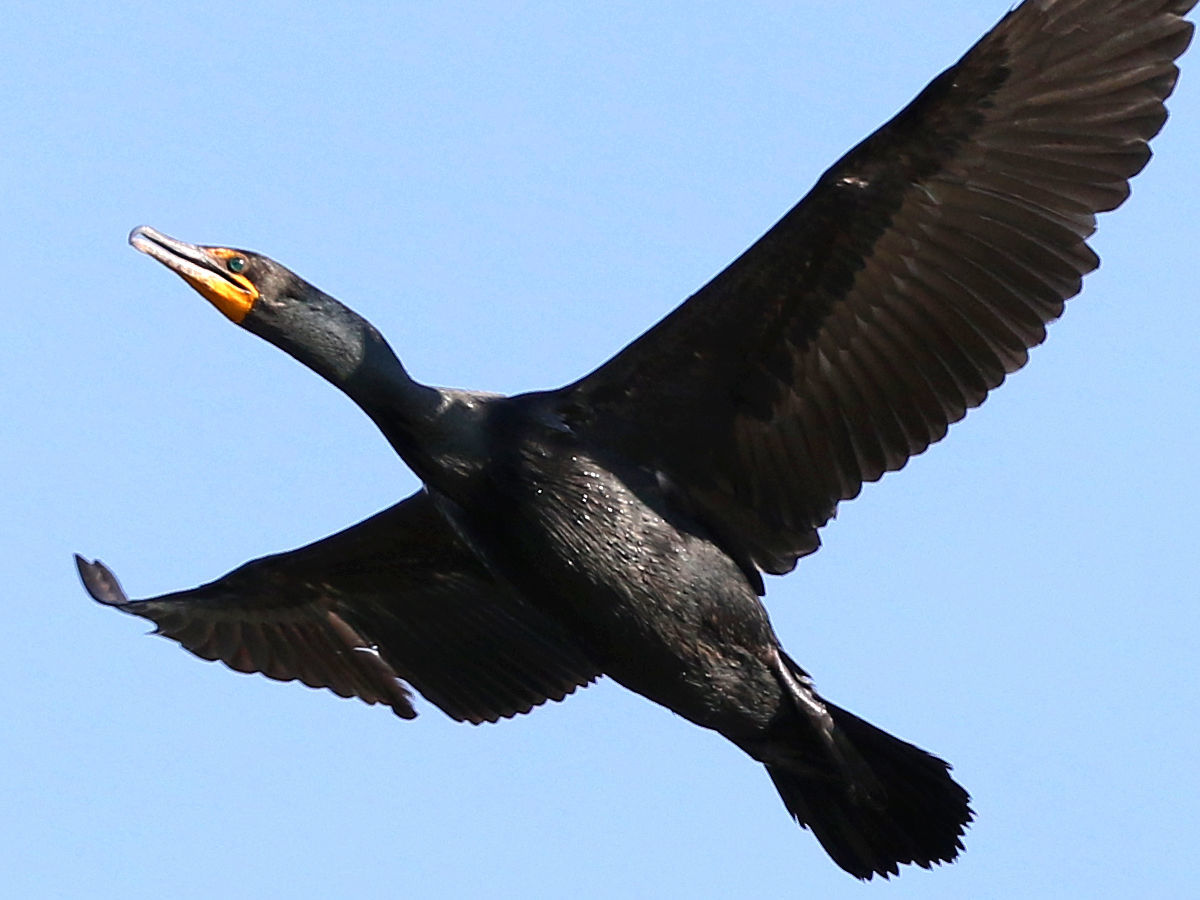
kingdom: Animalia
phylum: Chordata
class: Aves
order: Suliformes
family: Phalacrocoracidae
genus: Phalacrocorax
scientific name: Phalacrocorax auritus
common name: Double-crested cormorant
